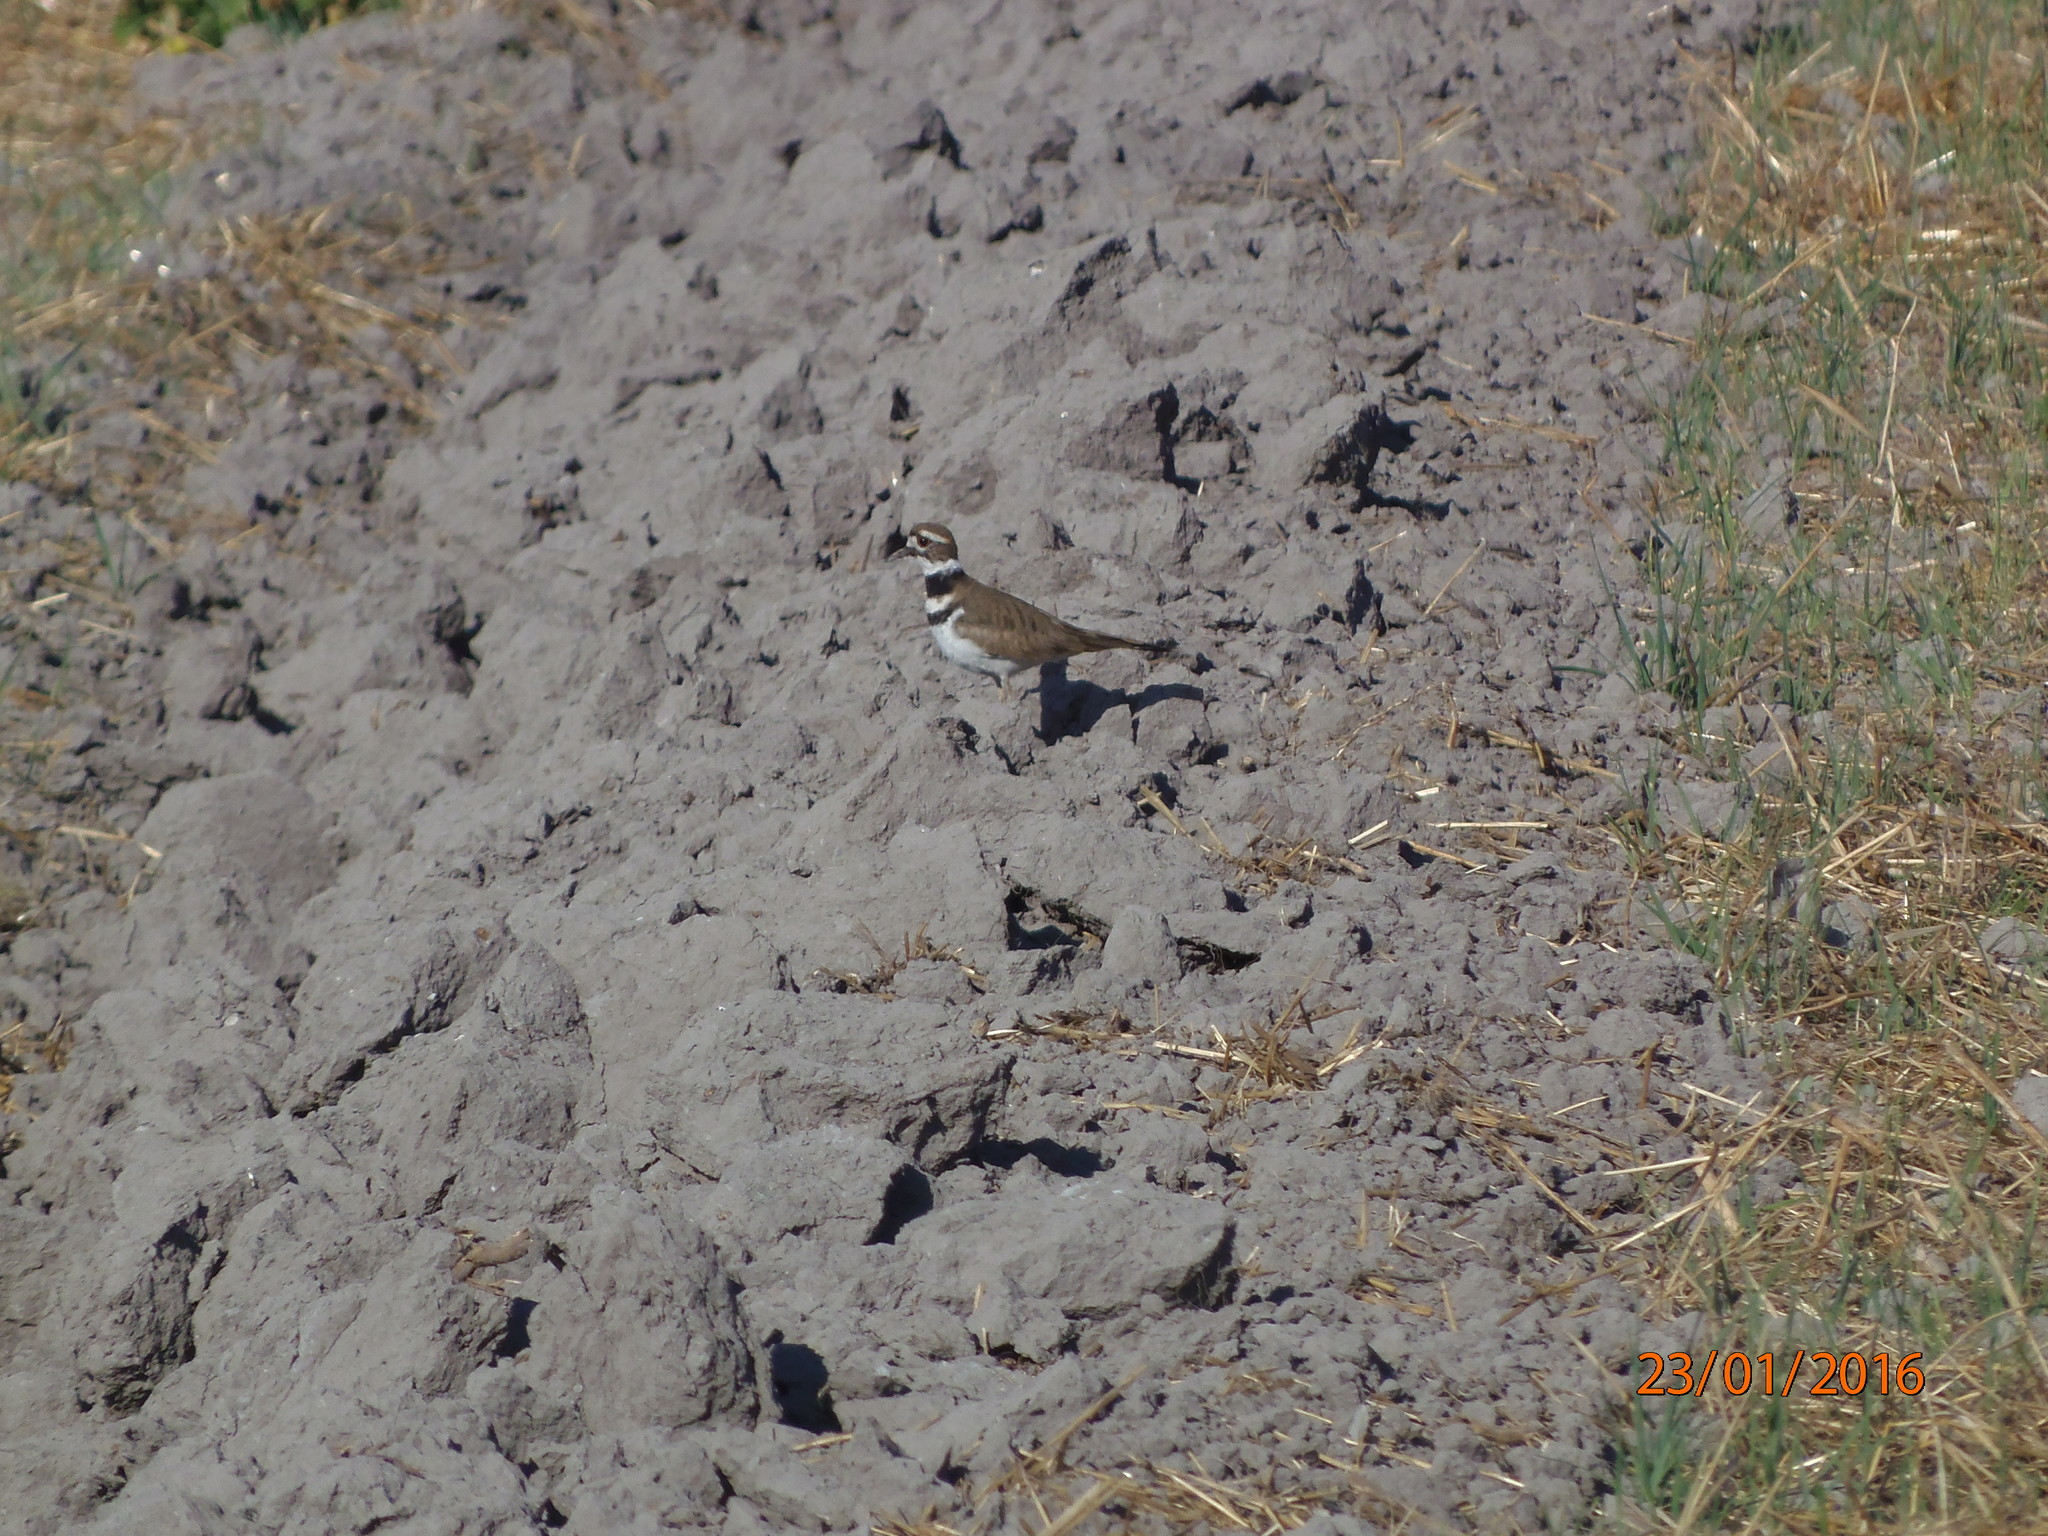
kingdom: Animalia
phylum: Chordata
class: Aves
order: Charadriiformes
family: Charadriidae
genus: Charadrius
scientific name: Charadrius vociferus
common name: Killdeer
